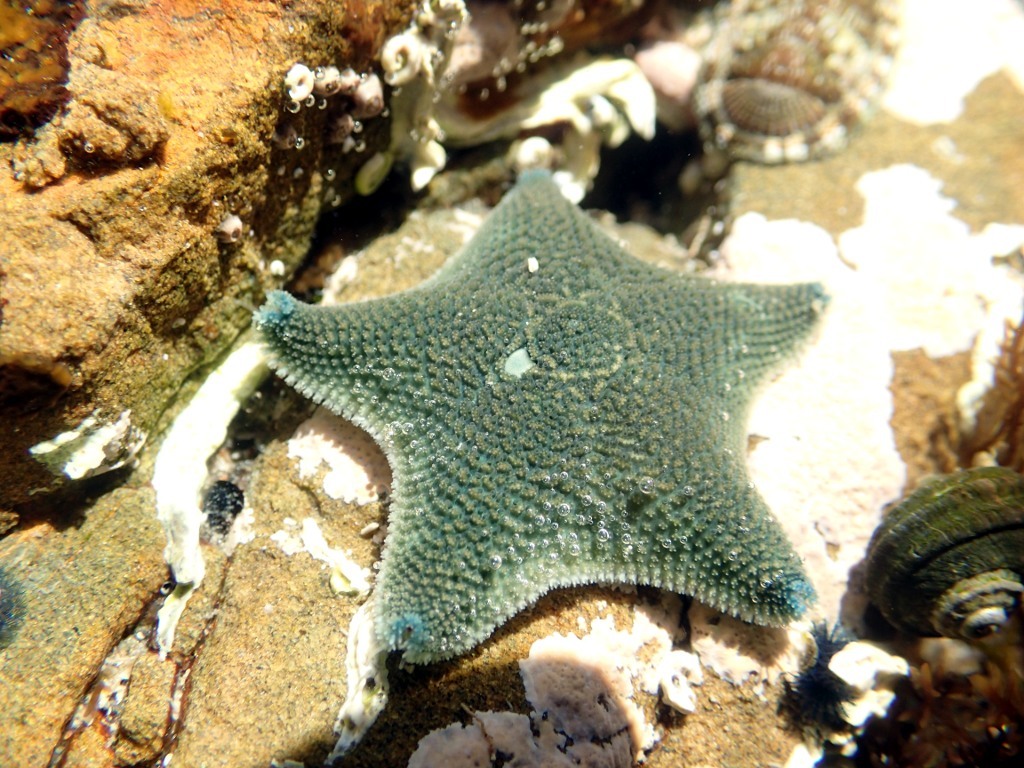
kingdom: Animalia
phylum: Echinodermata
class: Asteroidea
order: Valvatida
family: Asterinidae
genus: Patiriella
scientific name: Patiriella regularis
